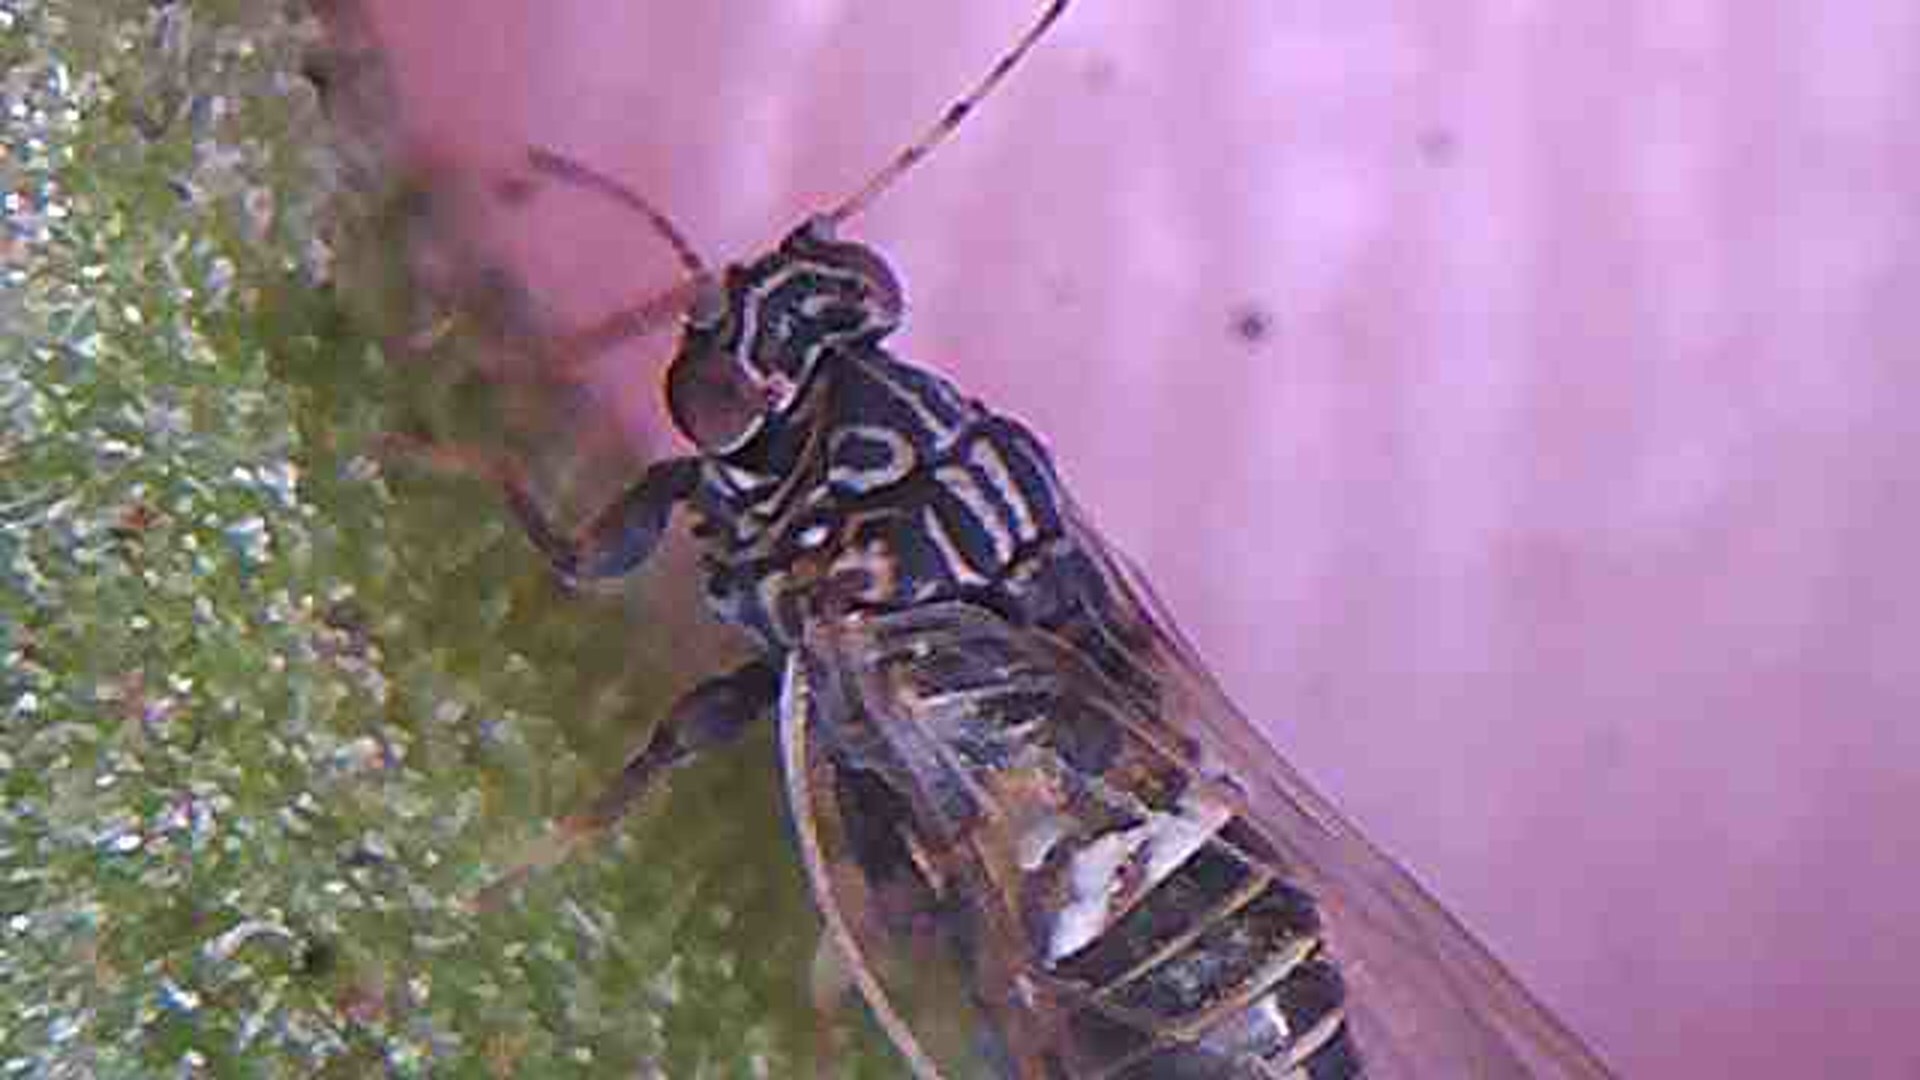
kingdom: Animalia
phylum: Arthropoda
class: Insecta
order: Hemiptera
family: Triozidae
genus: Bactericera
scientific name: Bactericera cockerelli
